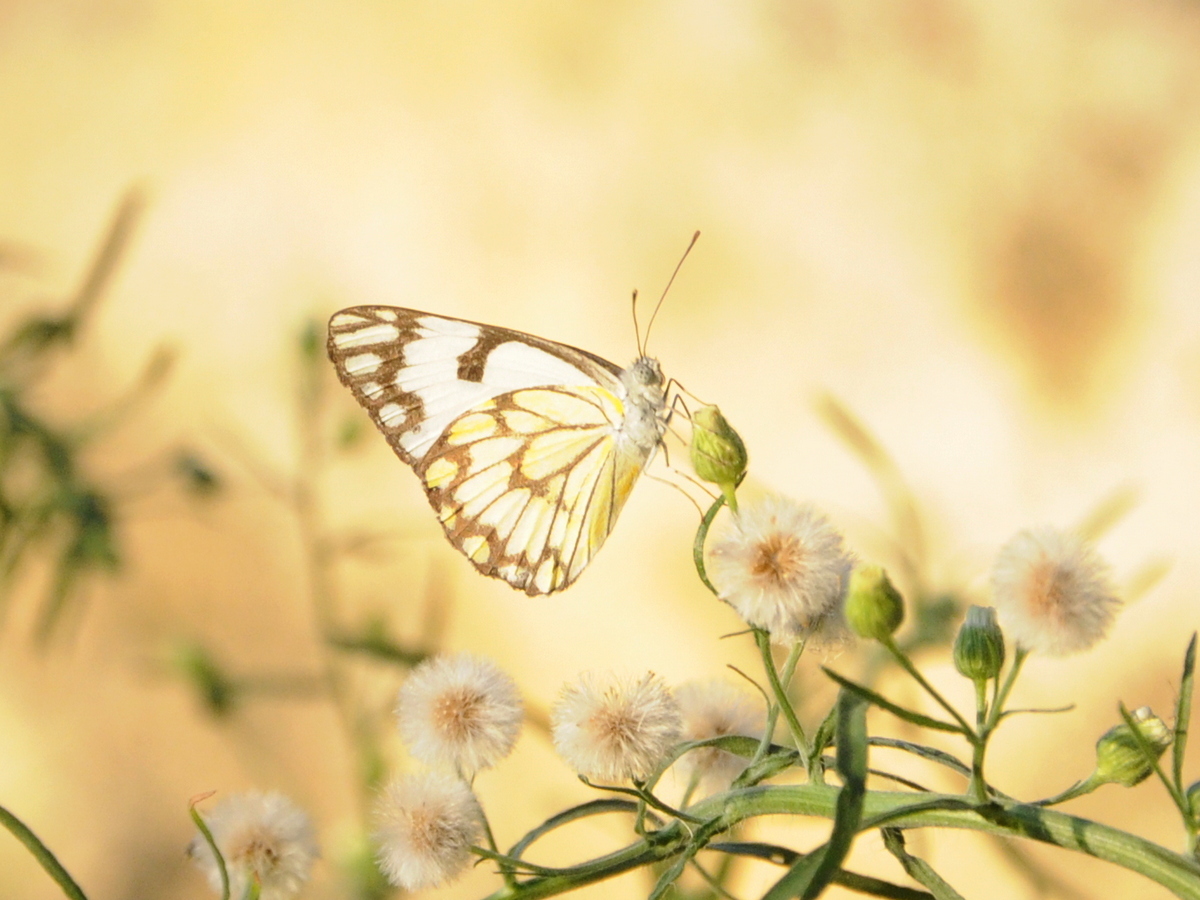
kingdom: Animalia
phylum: Arthropoda
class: Insecta
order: Lepidoptera
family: Pieridae
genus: Belenois
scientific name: Belenois aurota
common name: Brown-veined white
